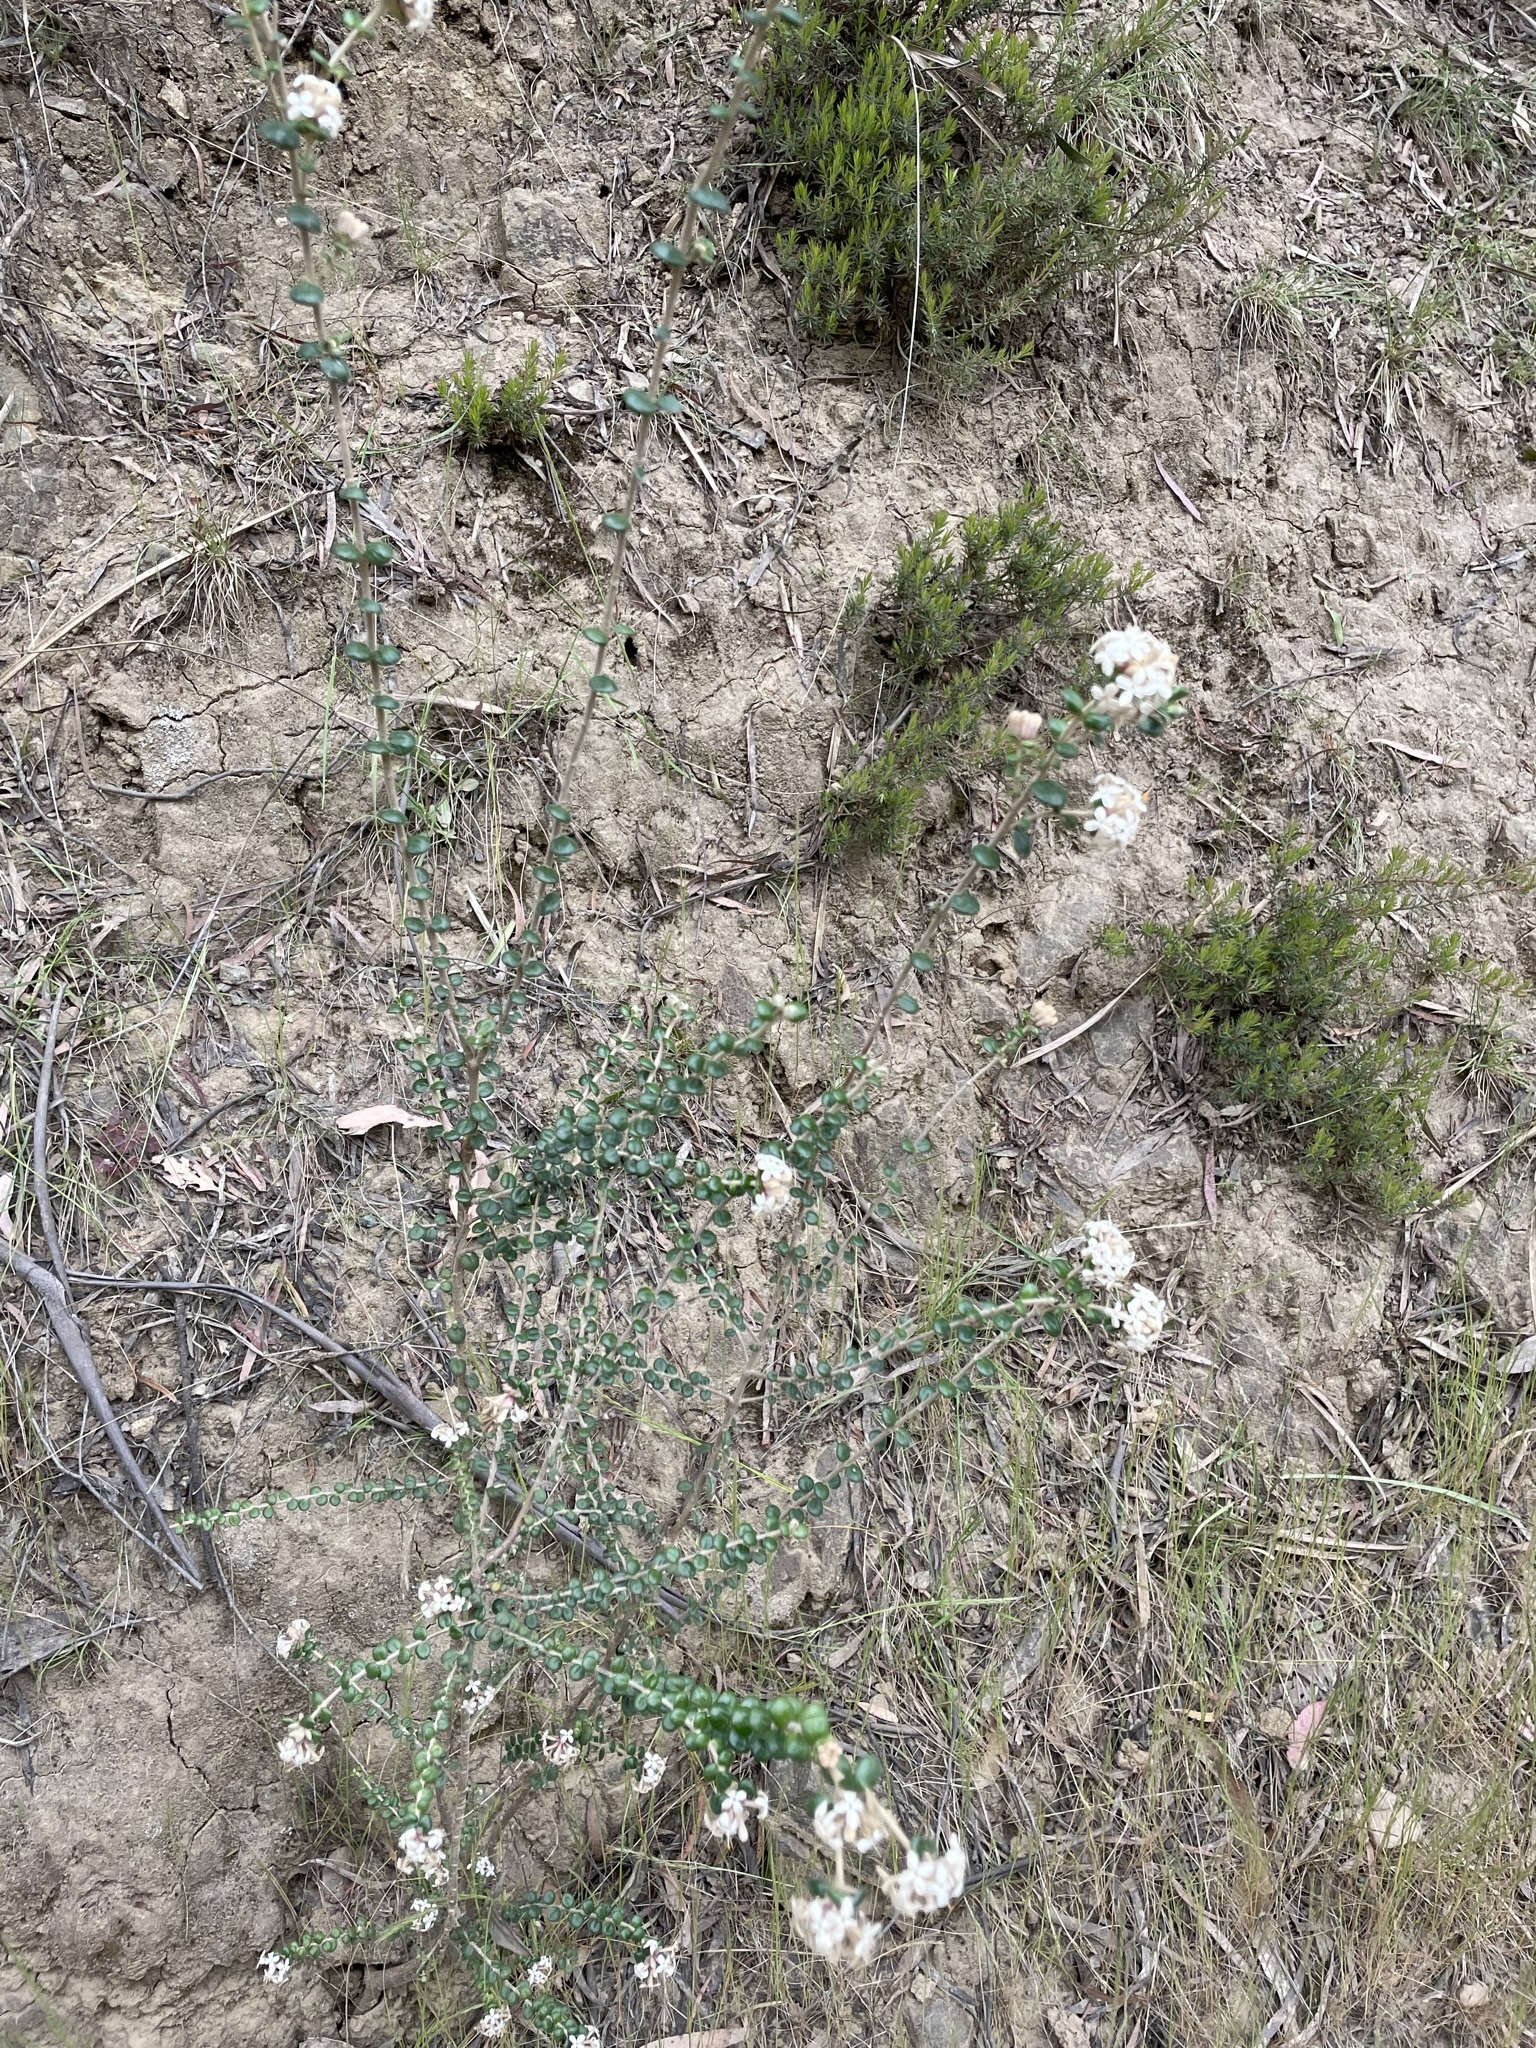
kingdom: Plantae
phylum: Tracheophyta
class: Magnoliopsida
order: Malvales
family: Thymelaeaceae
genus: Pimelea
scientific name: Pimelea nivea
